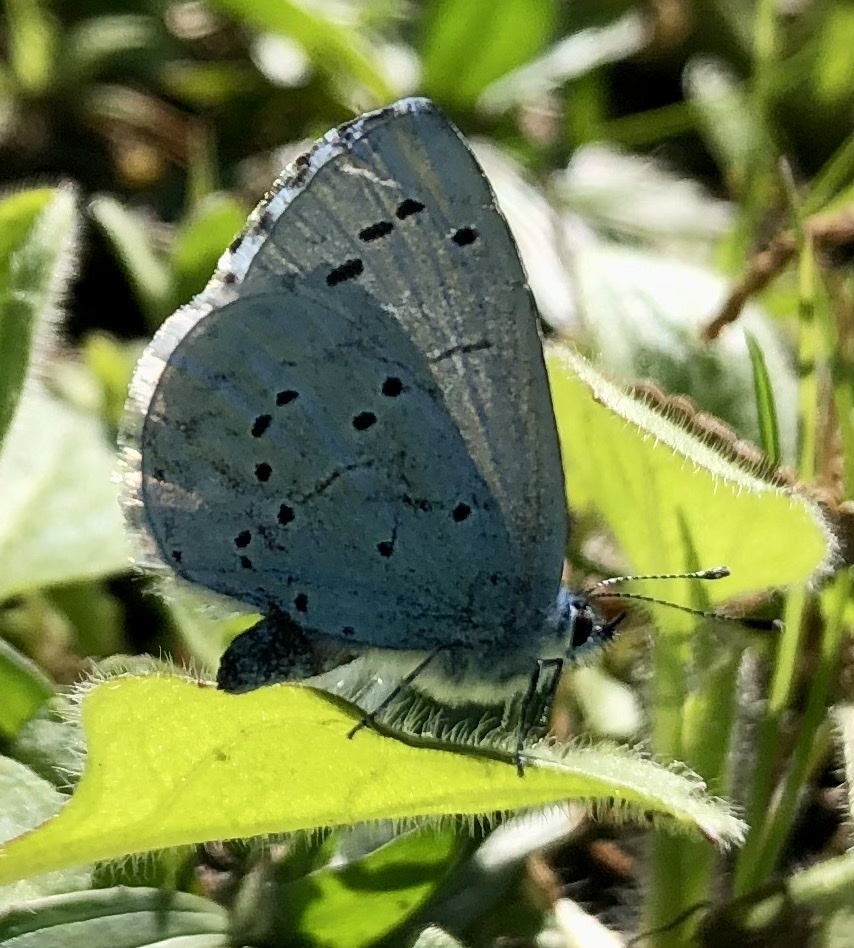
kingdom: Animalia
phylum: Arthropoda
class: Insecta
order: Lepidoptera
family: Lycaenidae
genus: Celastrina
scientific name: Celastrina argiolus
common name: Holly blue
